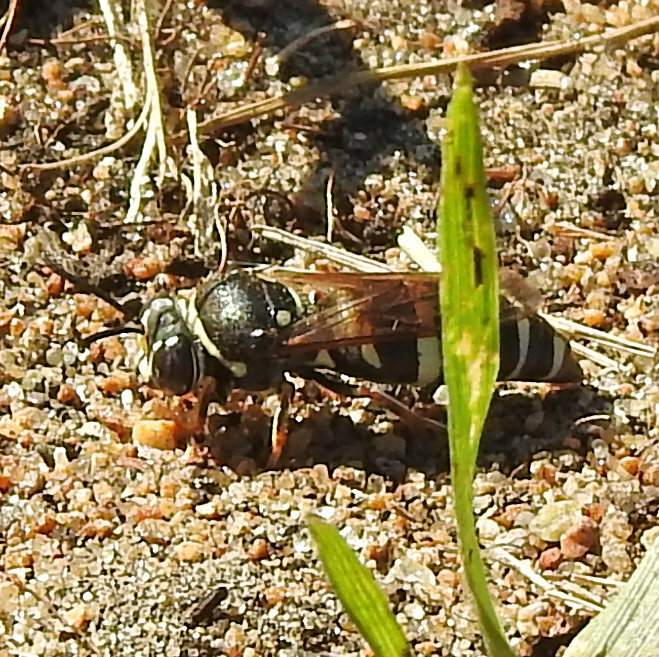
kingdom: Animalia
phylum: Arthropoda
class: Insecta
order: Hymenoptera
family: Crabronidae
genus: Bicyrtes
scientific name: Bicyrtes ventralis
